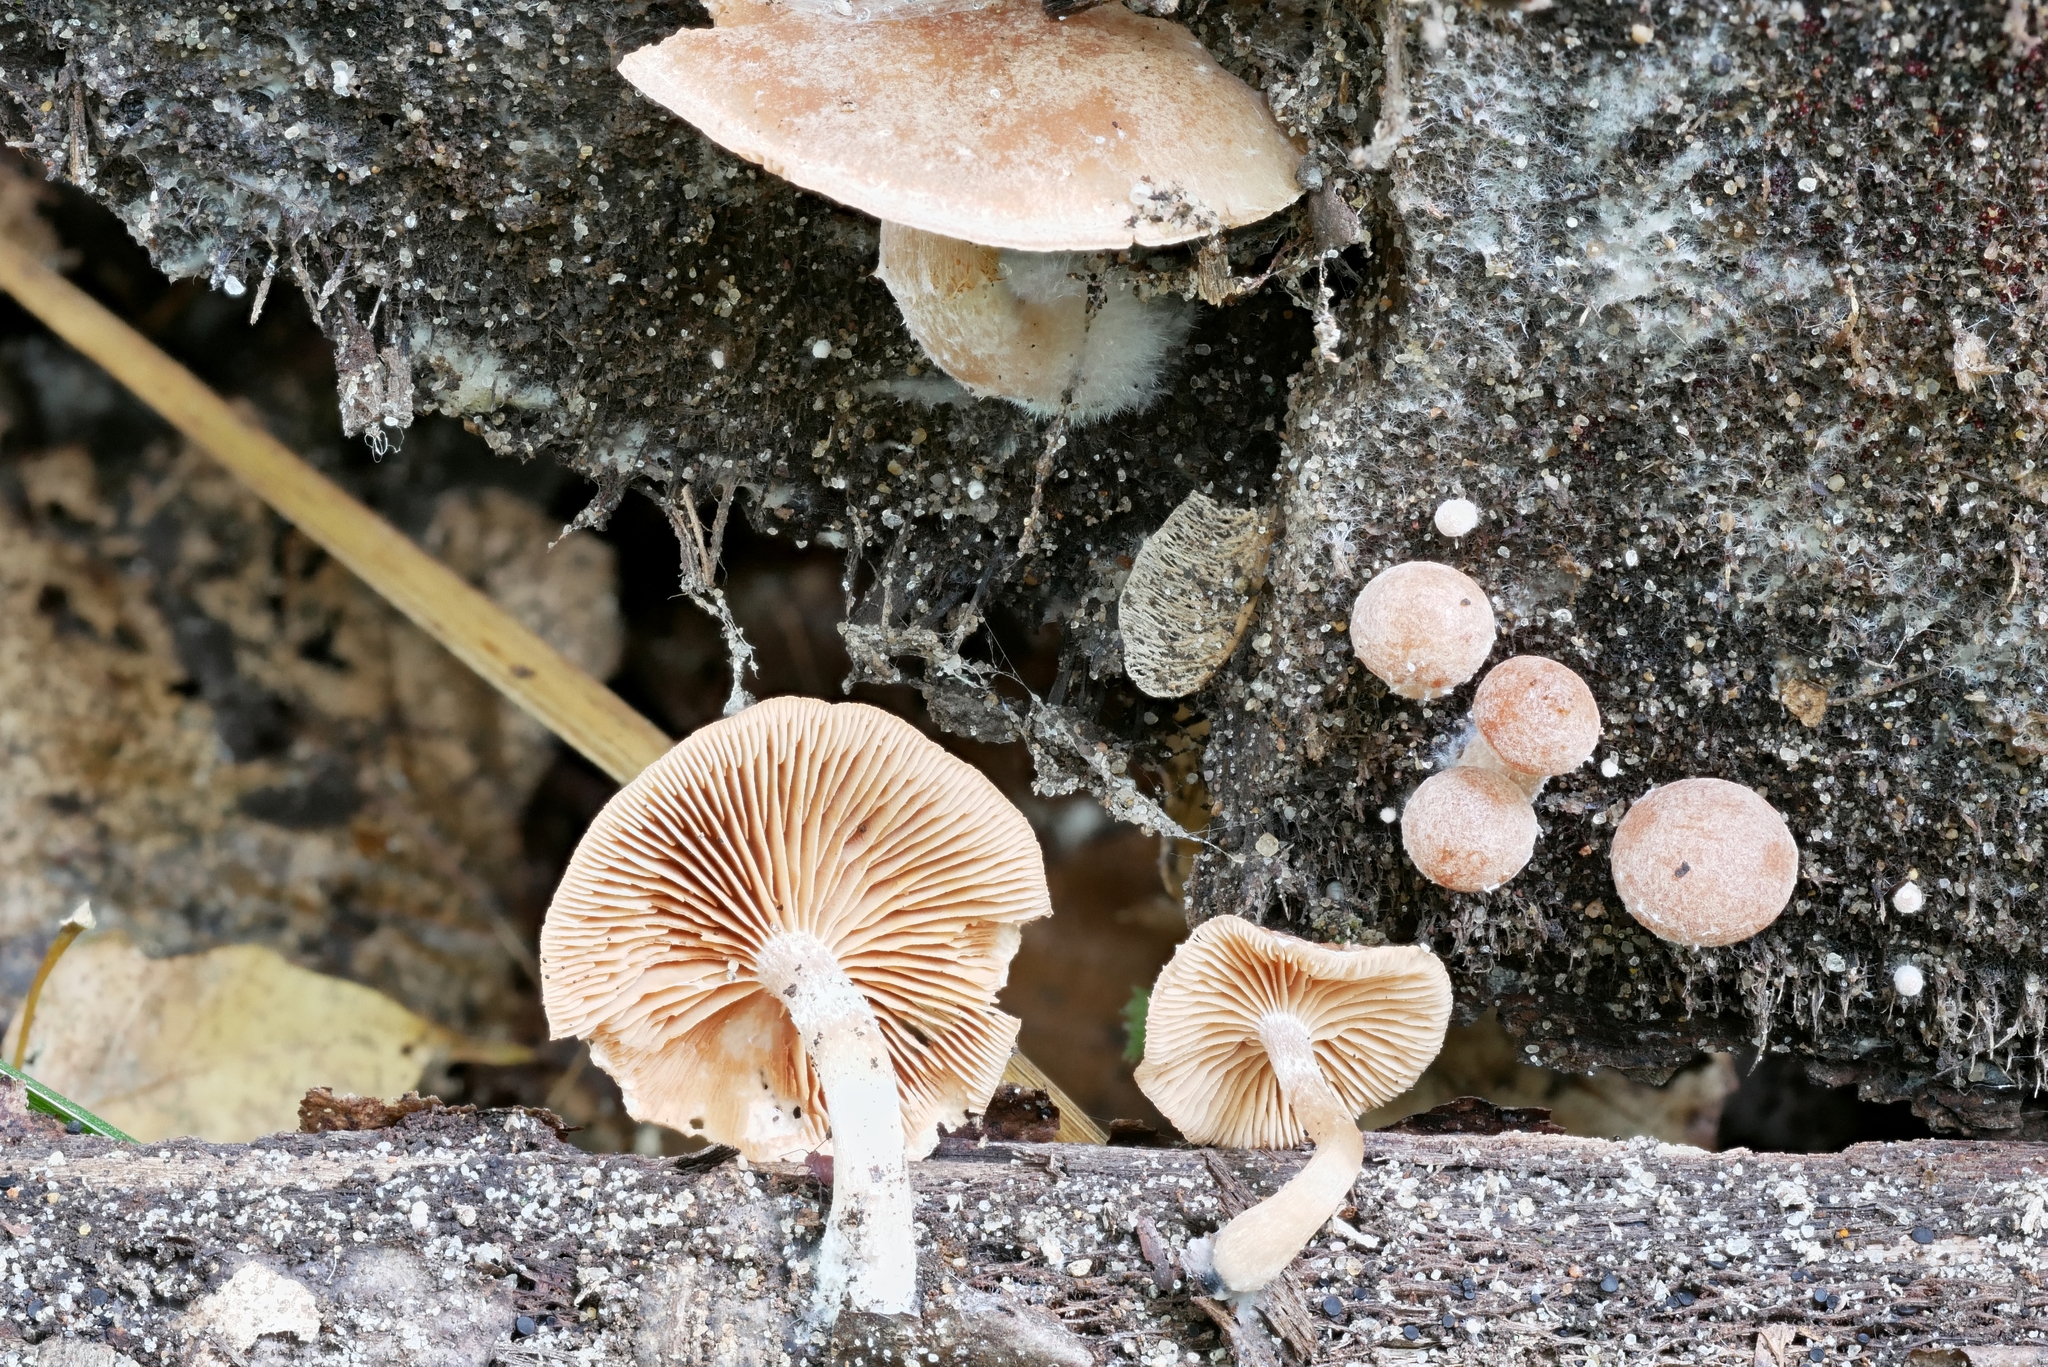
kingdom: Fungi
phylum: Basidiomycota
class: Agaricomycetes
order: Agaricales
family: Tubariaceae
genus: Tubaria
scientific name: Tubaria romagnesiana
